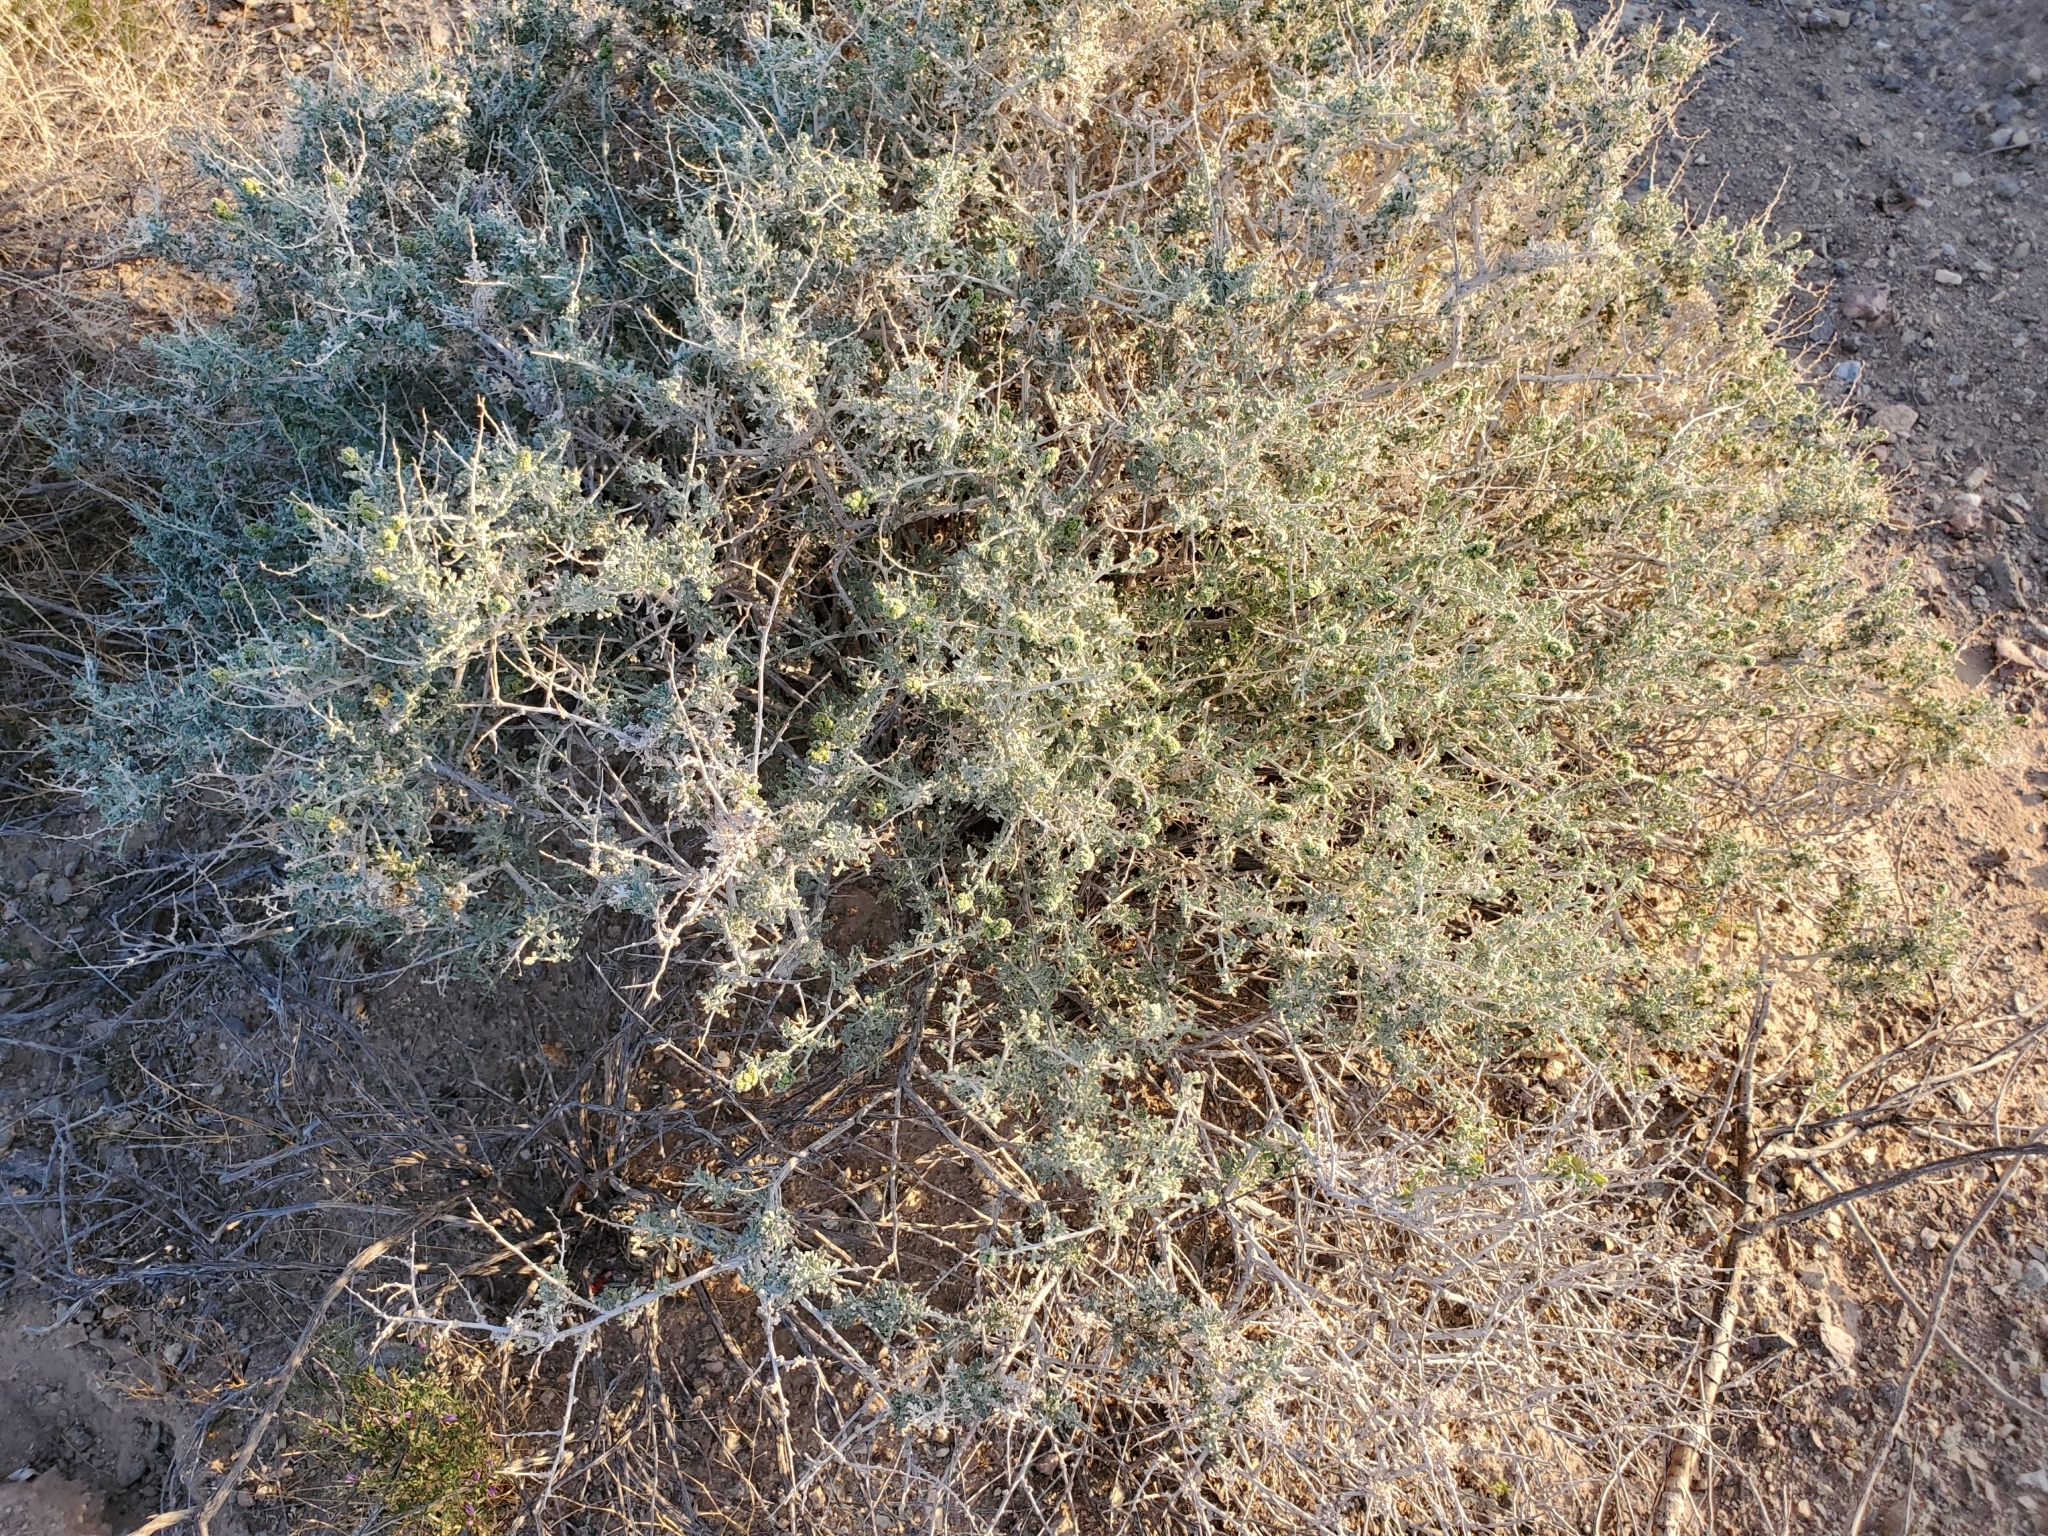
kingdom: Plantae
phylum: Tracheophyta
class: Magnoliopsida
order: Asterales
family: Asteraceae
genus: Ambrosia
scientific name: Ambrosia dumosa
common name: Bur-sage
